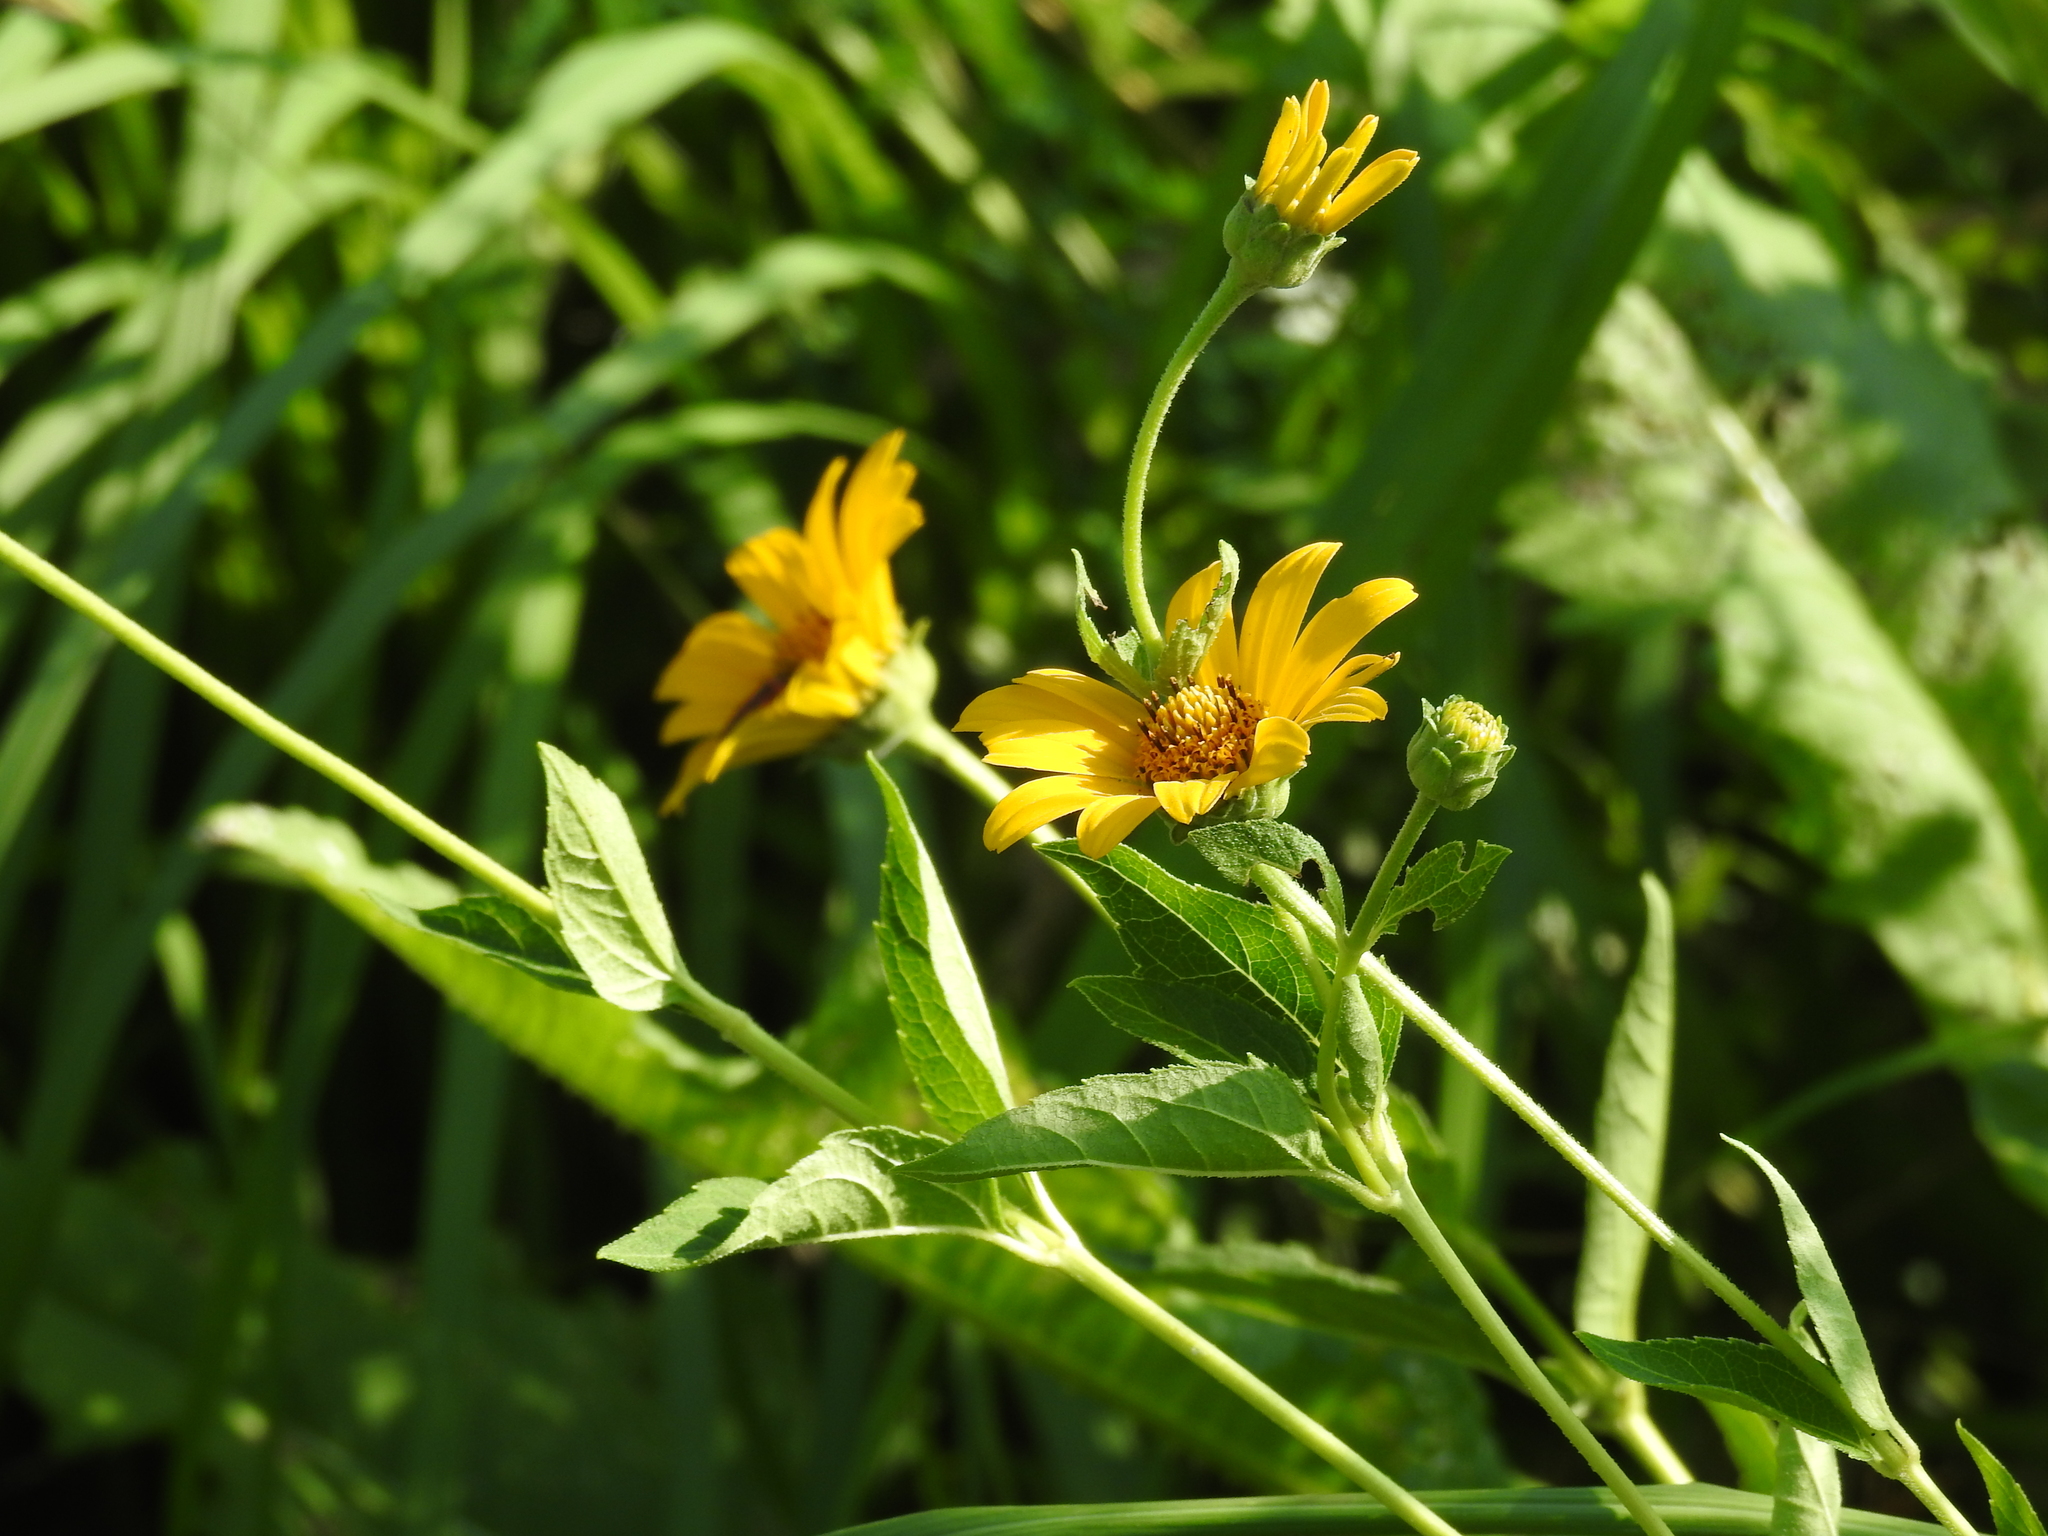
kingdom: Plantae
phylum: Tracheophyta
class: Magnoliopsida
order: Asterales
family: Asteraceae
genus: Heliopsis
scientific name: Heliopsis helianthoides
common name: False sunflower
